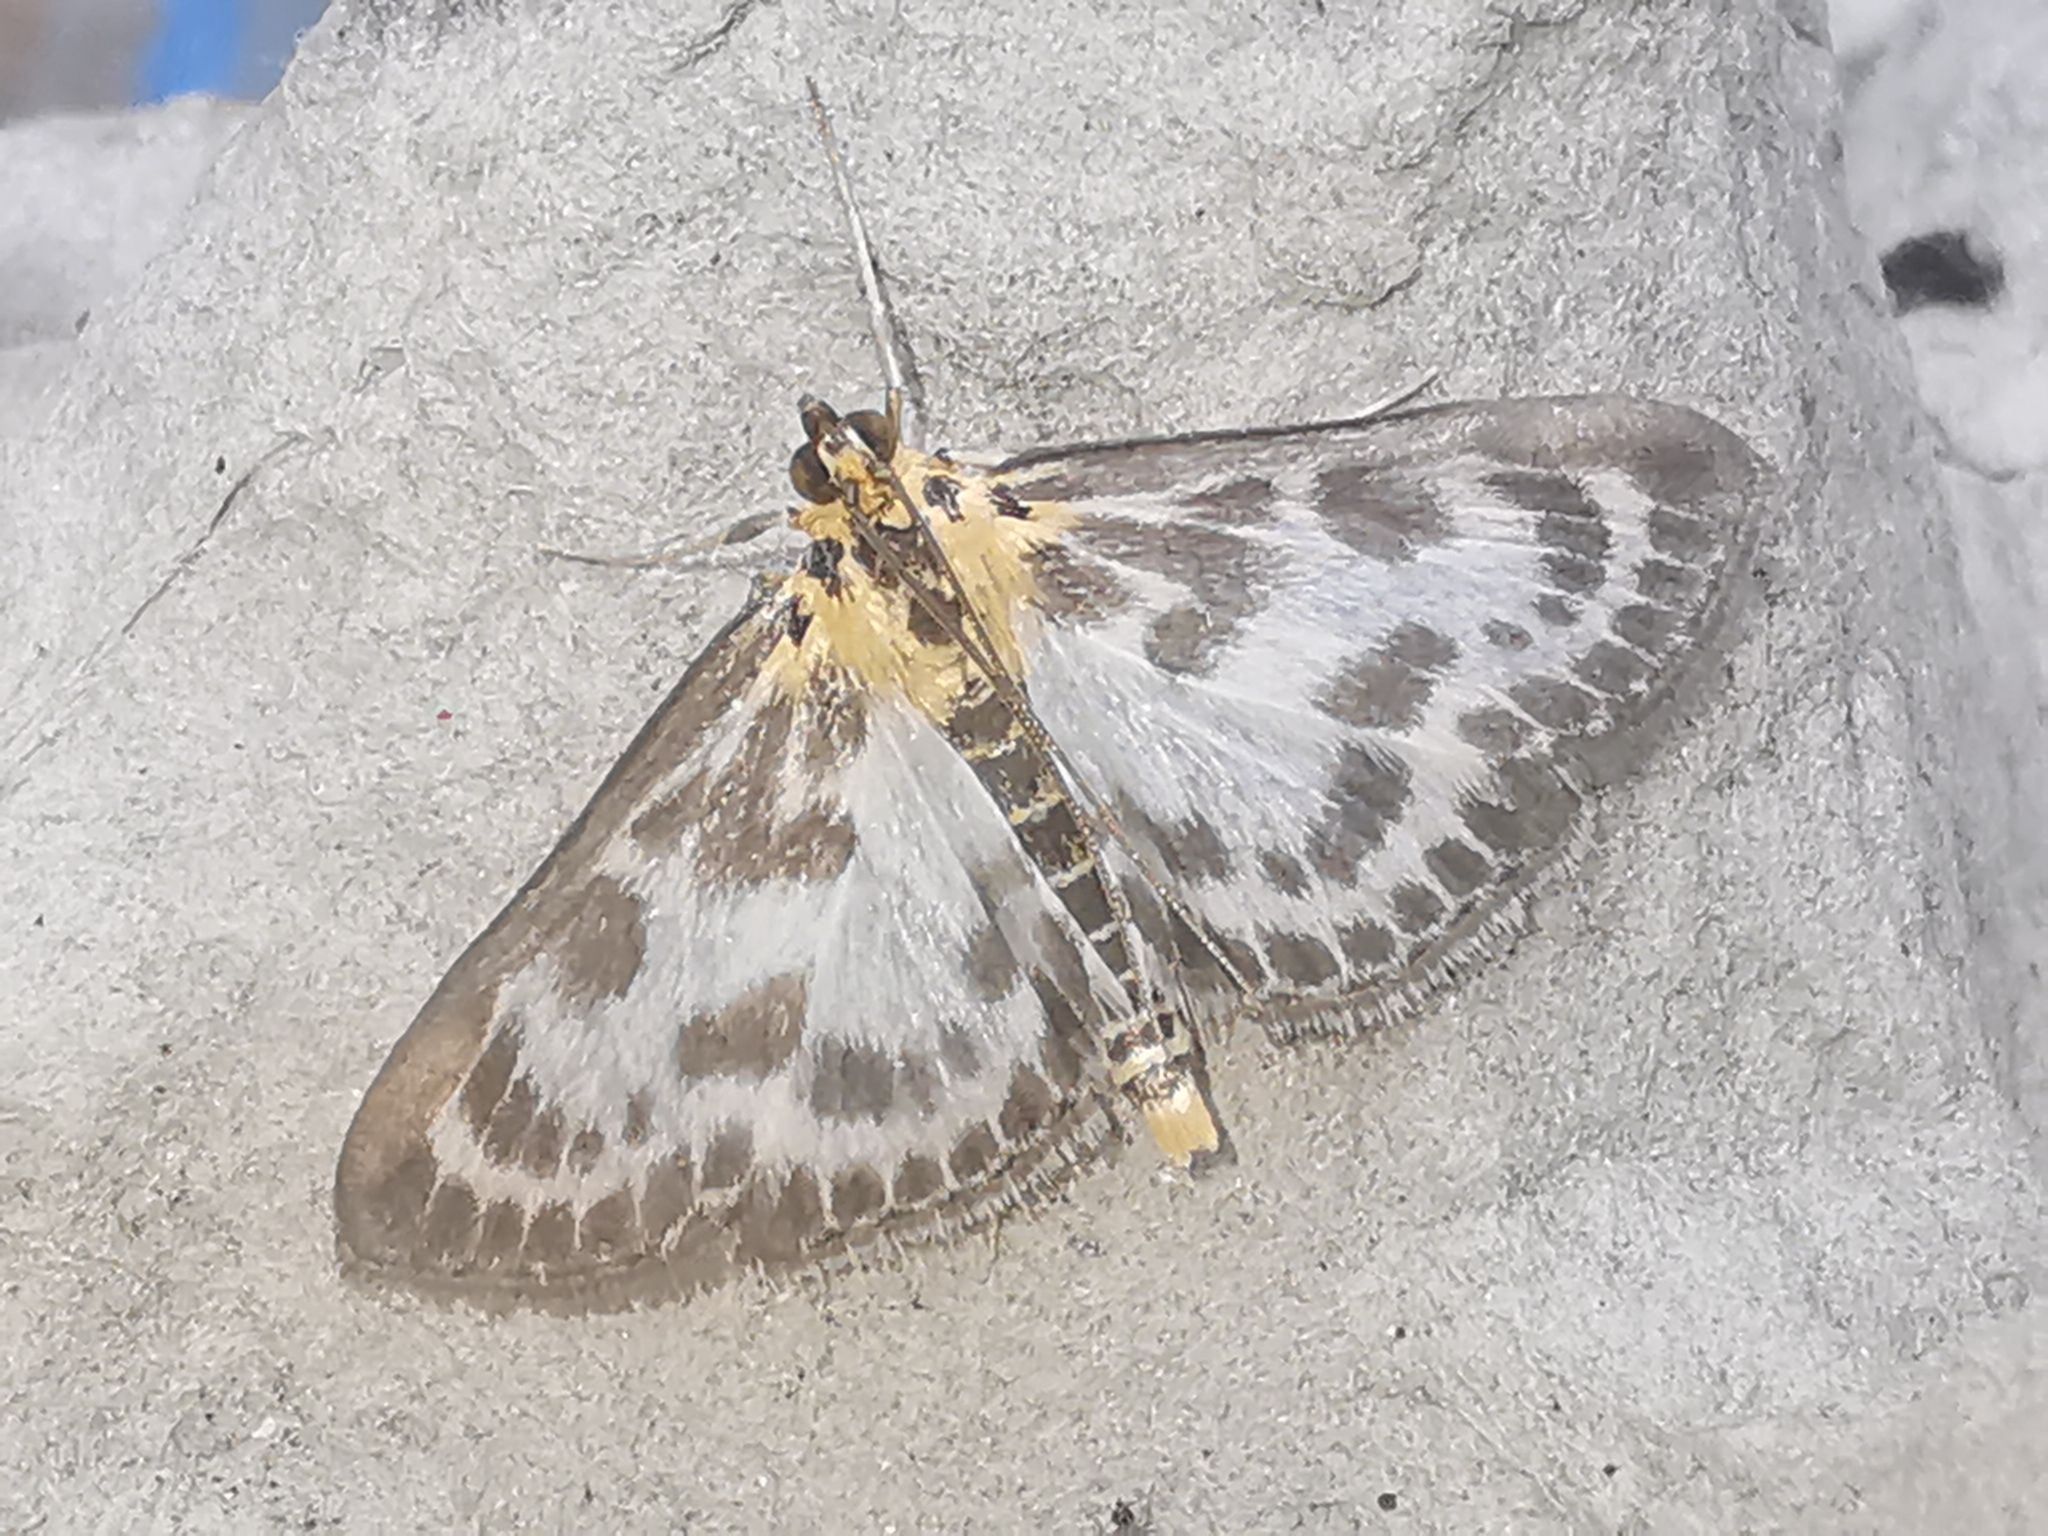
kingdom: Animalia
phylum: Arthropoda
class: Insecta
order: Lepidoptera
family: Crambidae
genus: Anania
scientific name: Anania hortulata
